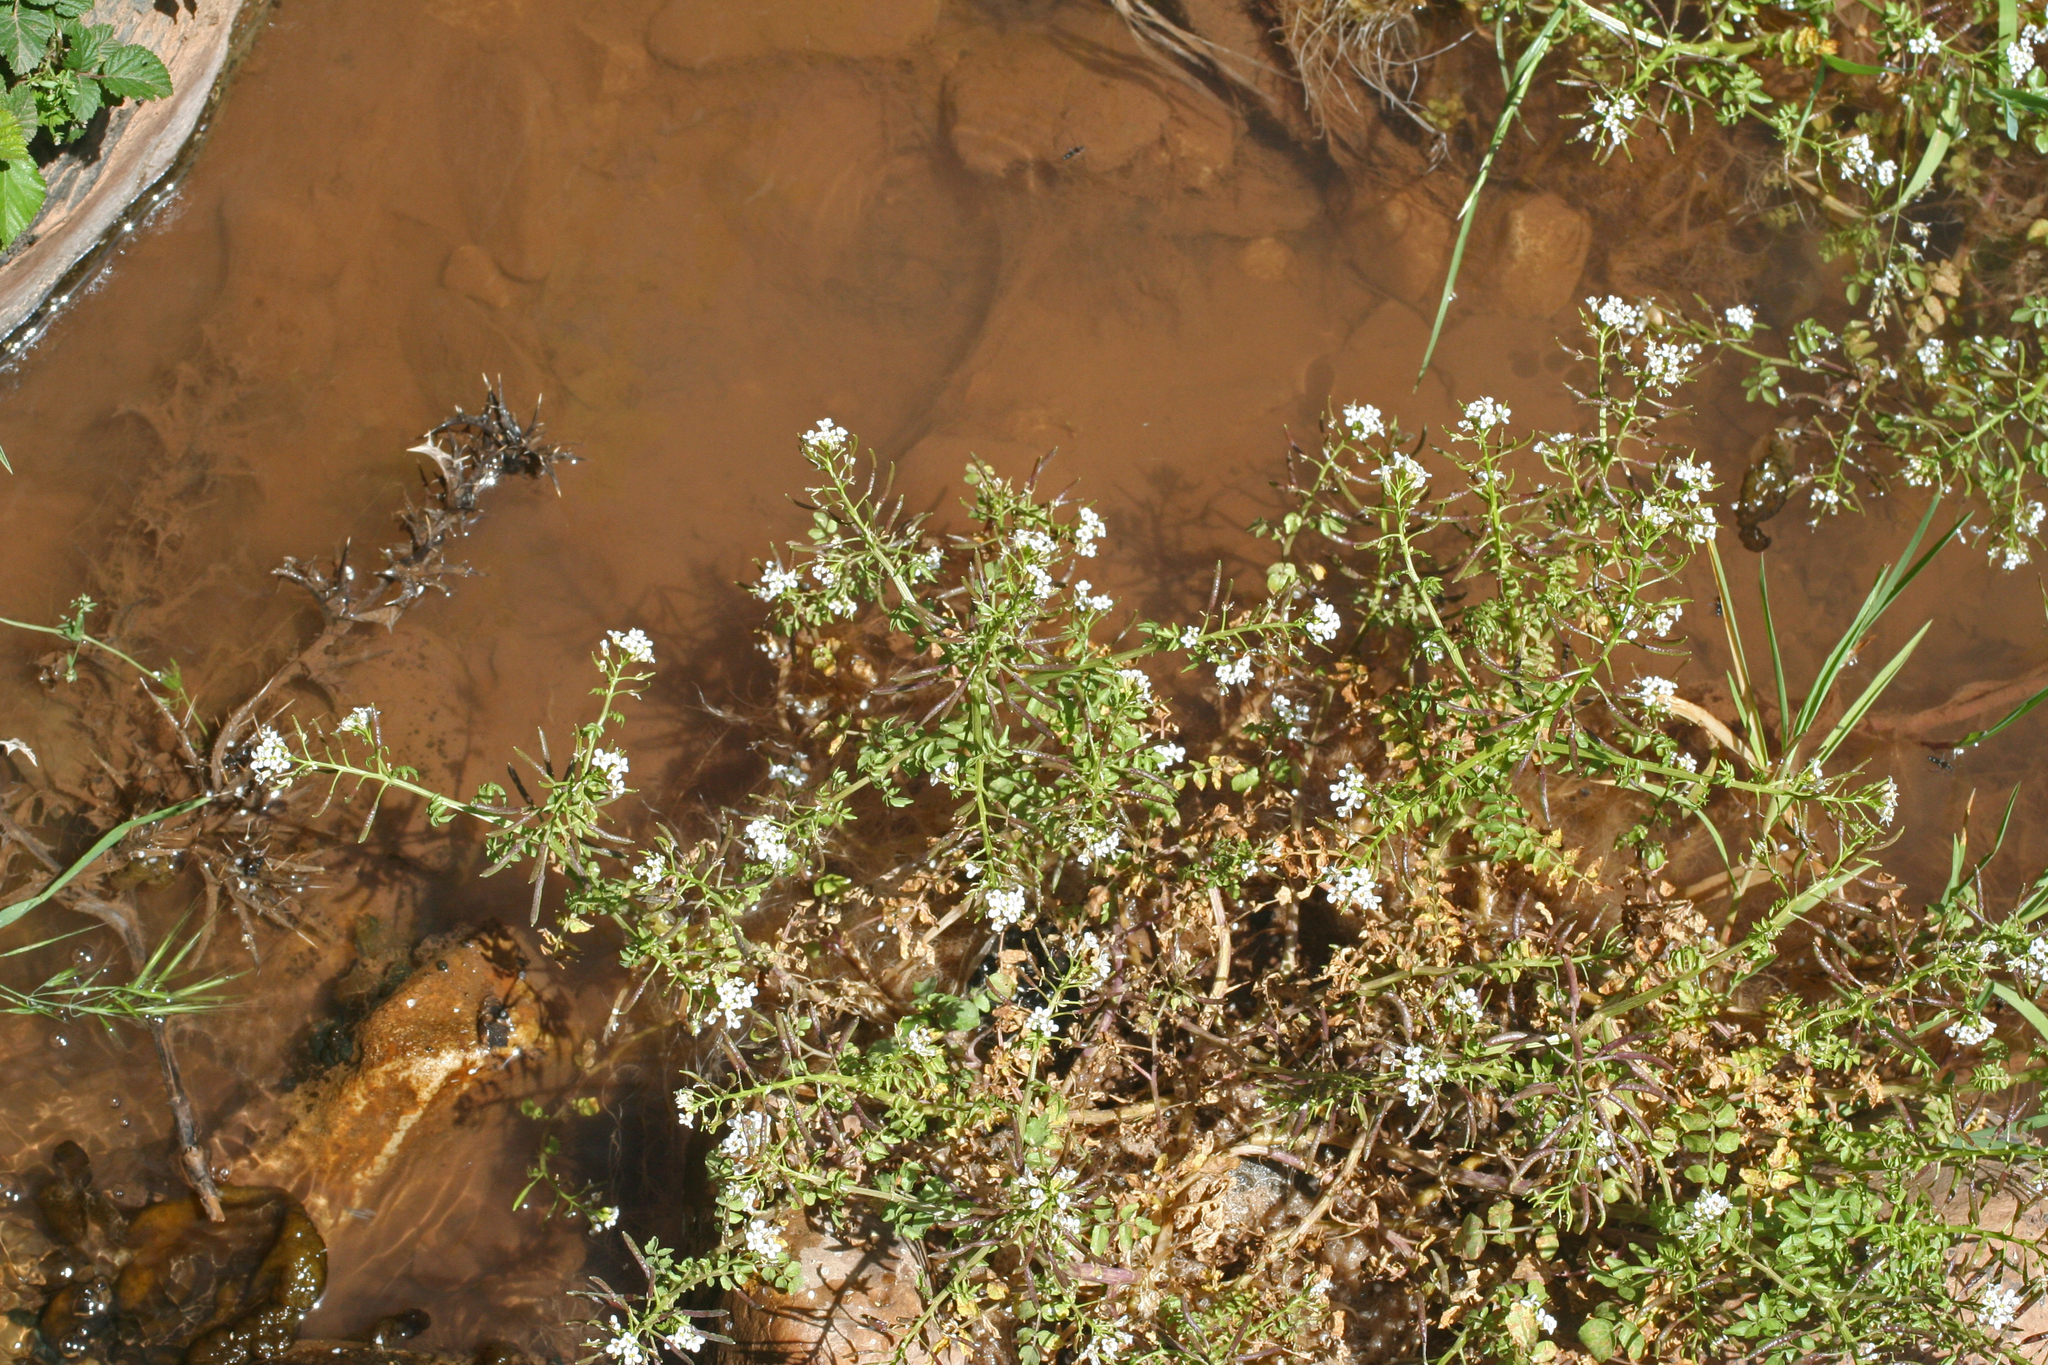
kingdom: Plantae
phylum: Tracheophyta
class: Magnoliopsida
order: Brassicales
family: Brassicaceae
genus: Nasturtium
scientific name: Nasturtium officinale
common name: Watercress
